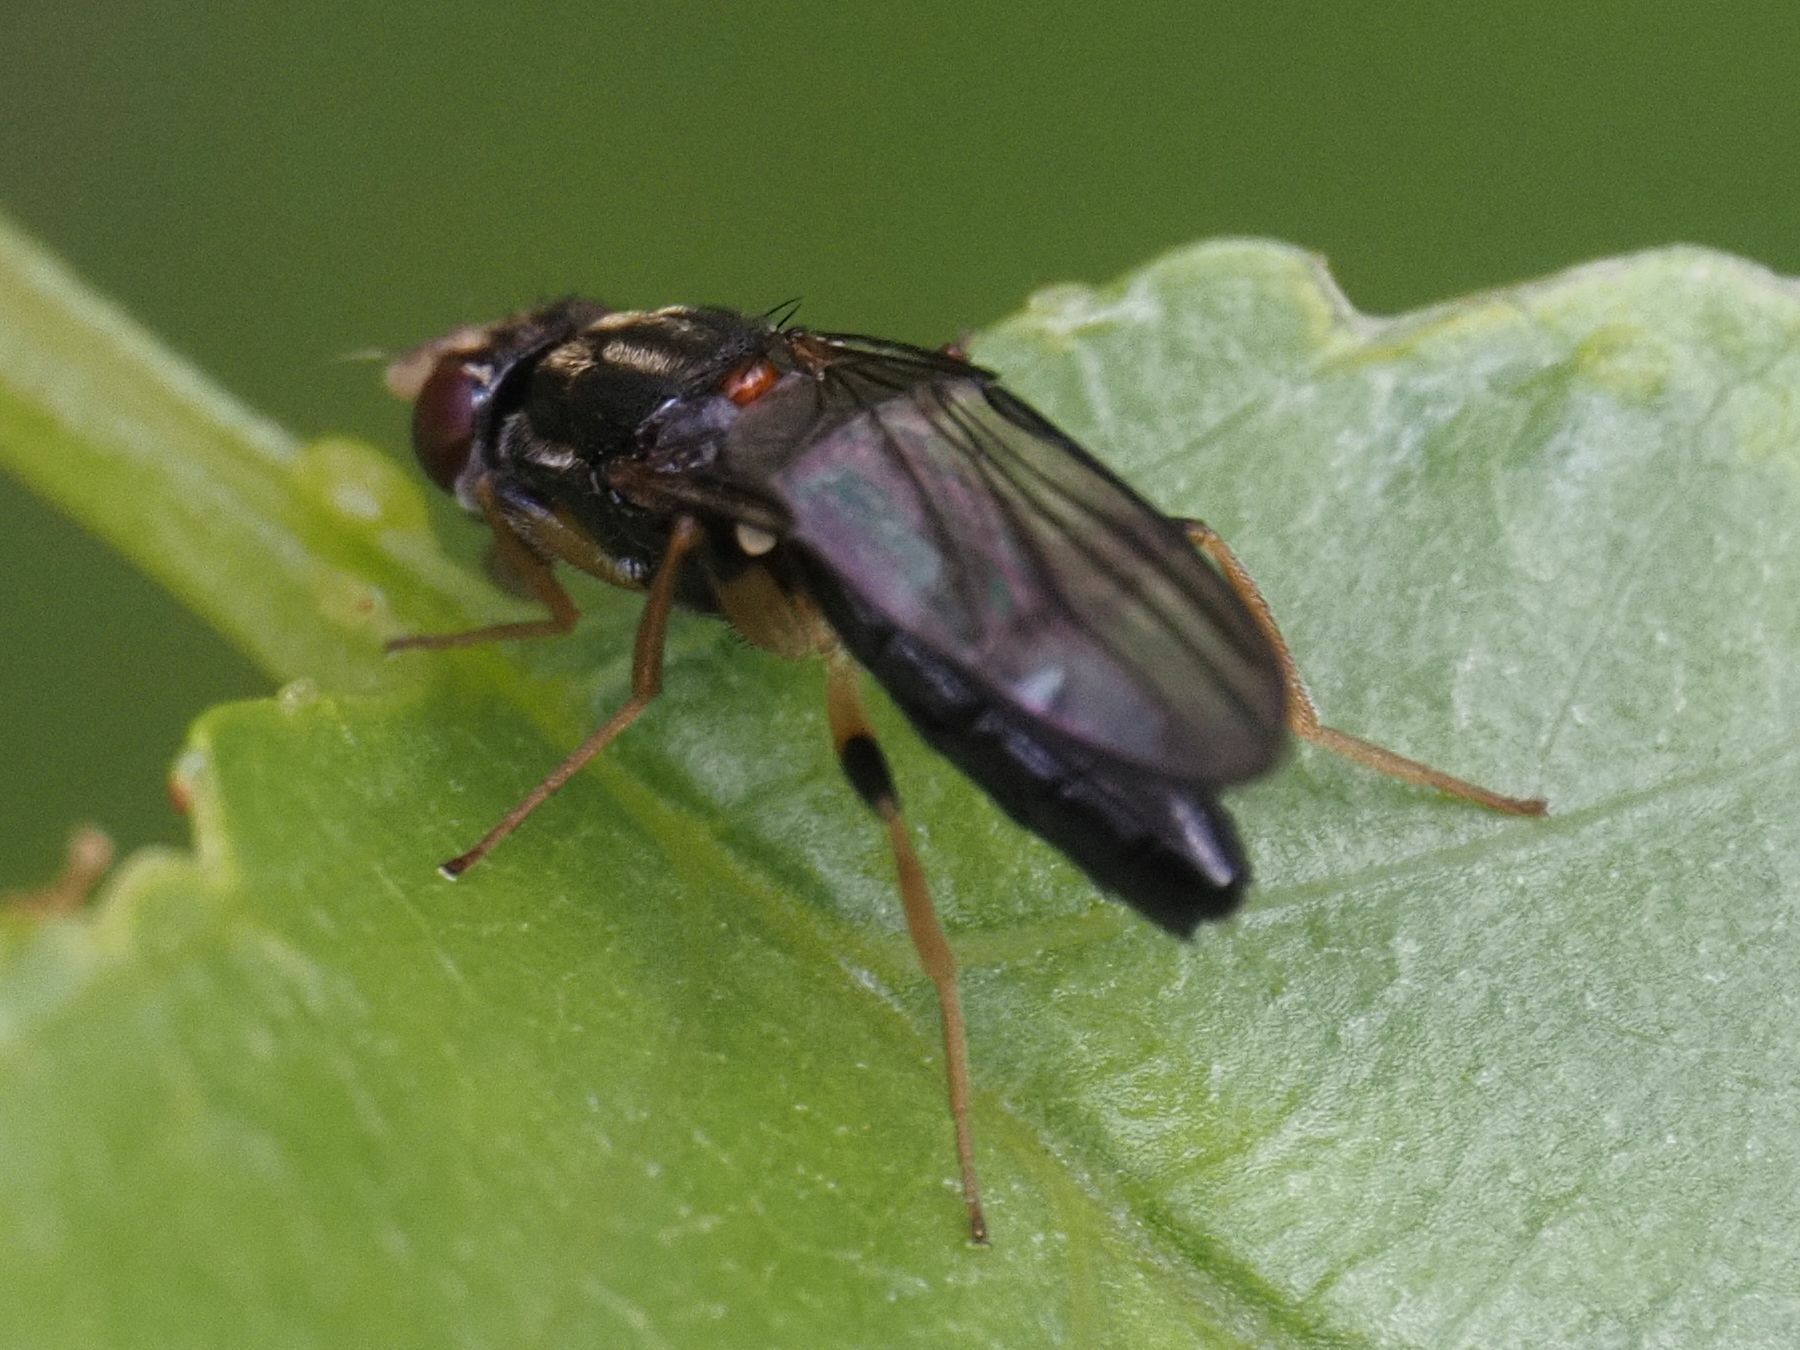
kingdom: Animalia
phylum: Arthropoda
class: Insecta
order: Diptera
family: Psilidae
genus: Chyliza
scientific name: Chyliza annulipes
